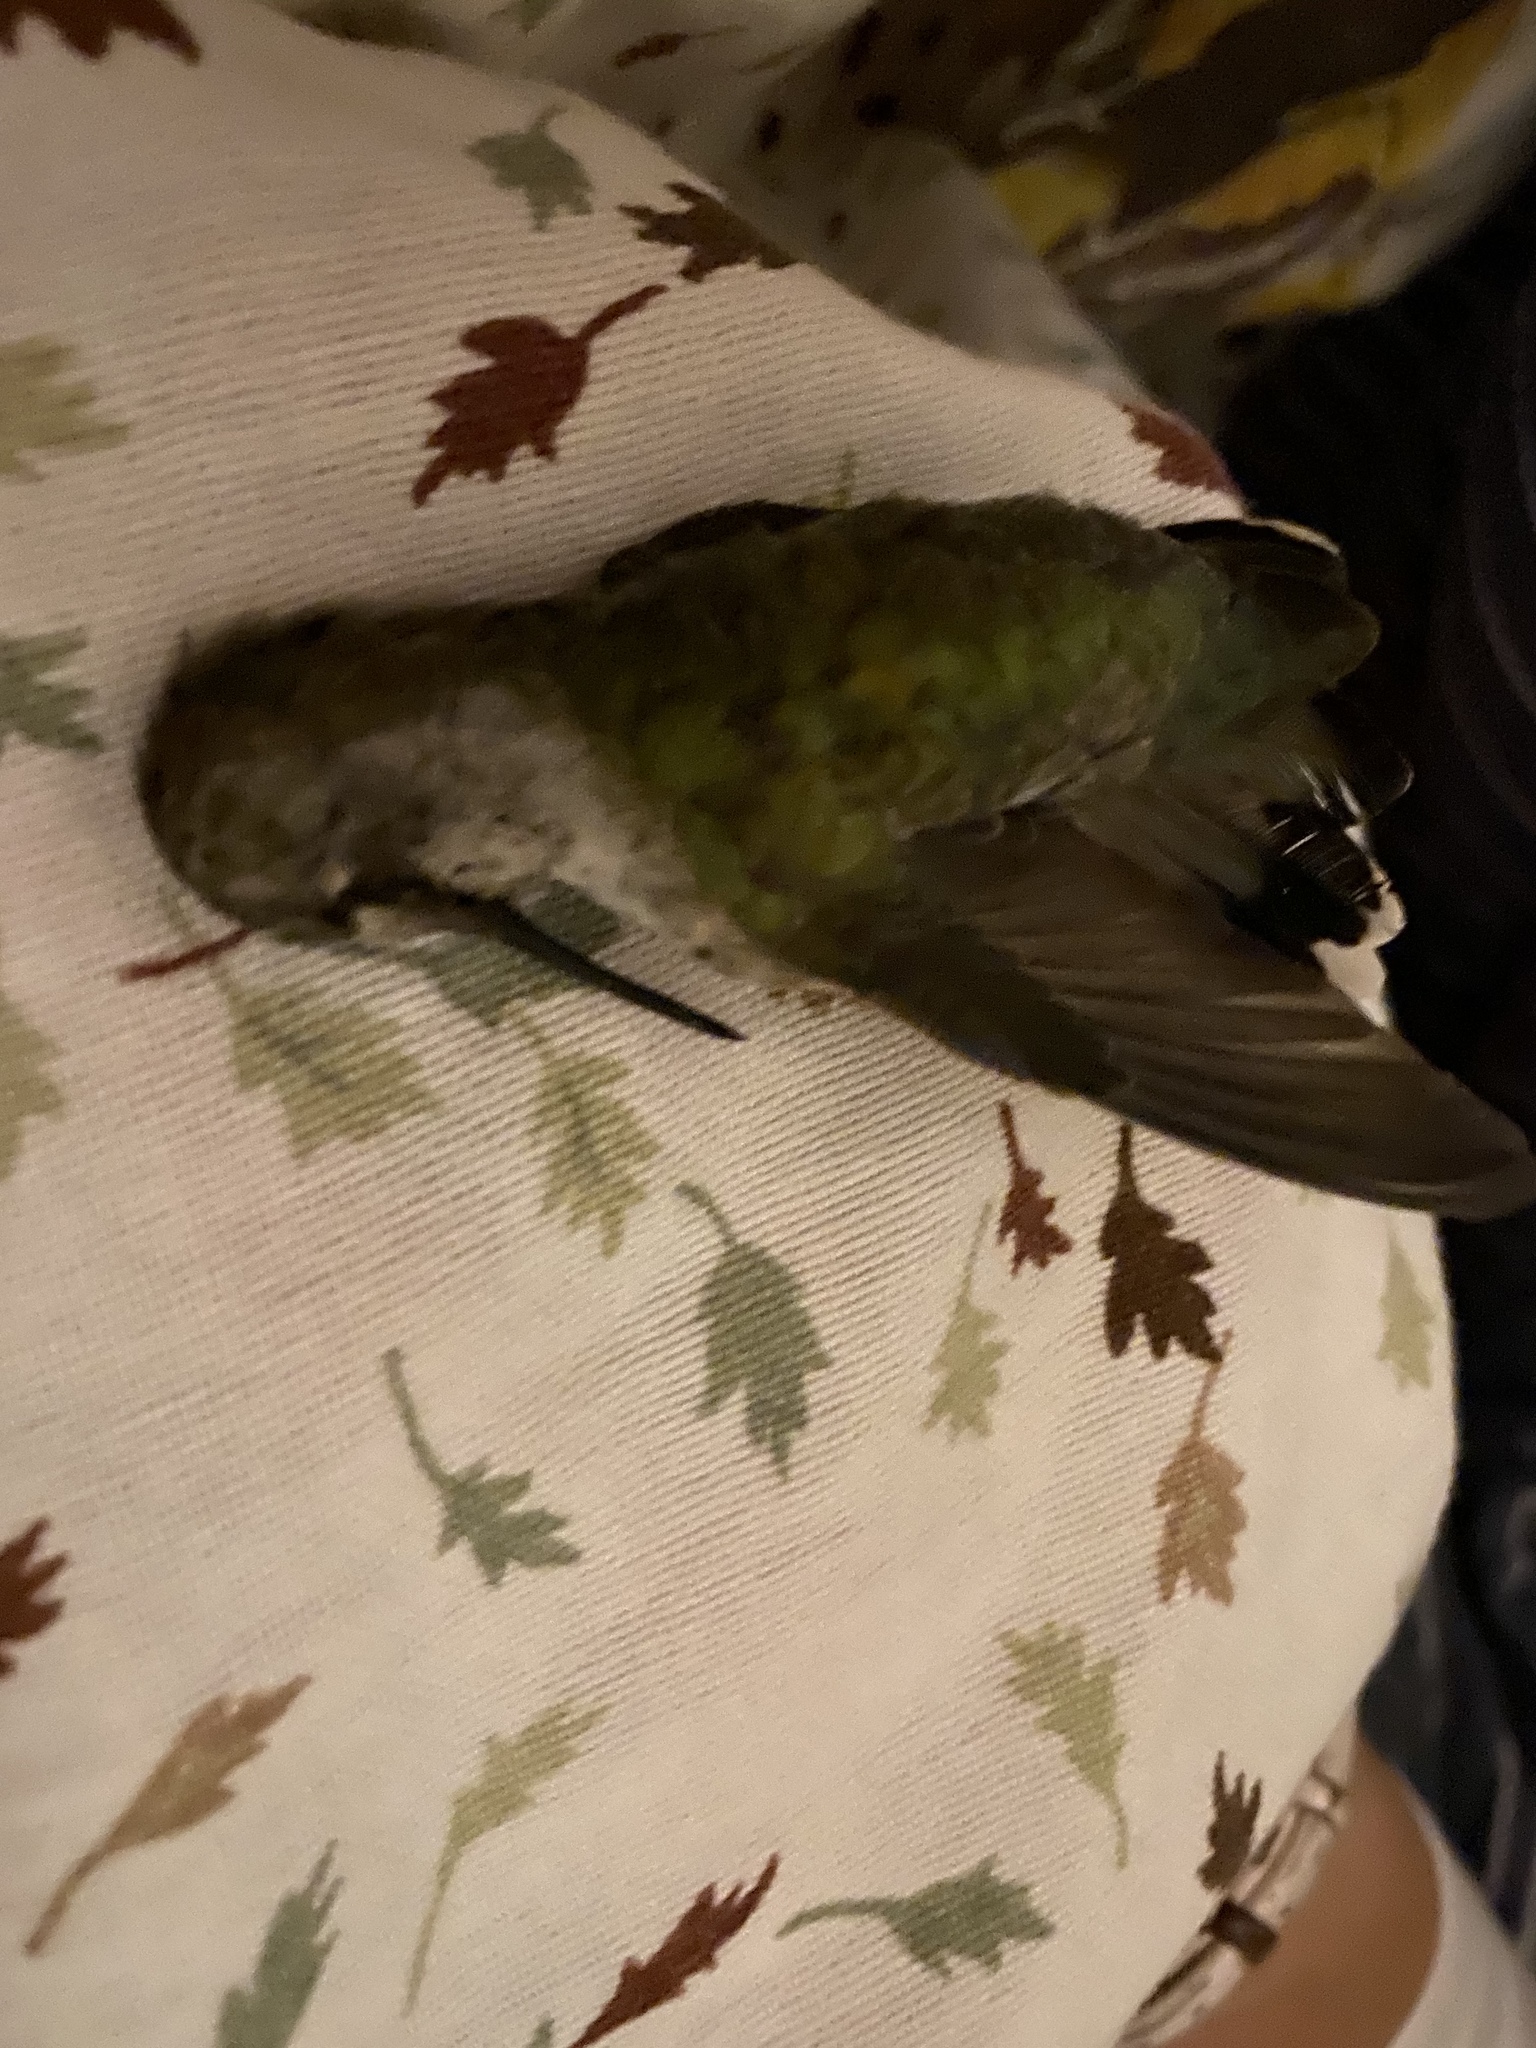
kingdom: Animalia
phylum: Chordata
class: Aves
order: Apodiformes
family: Trochilidae
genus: Calypte
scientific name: Calypte anna
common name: Anna's hummingbird
